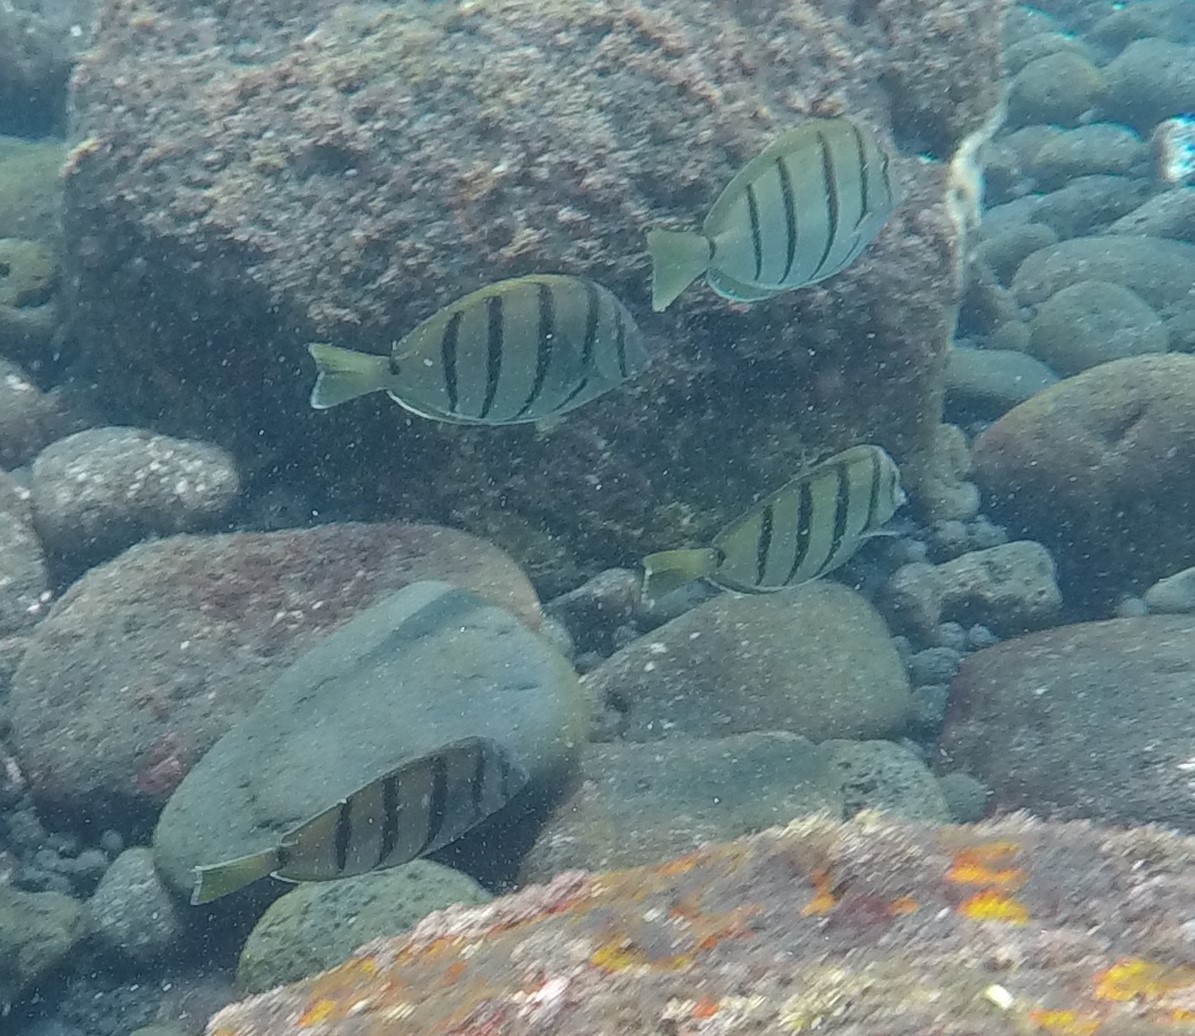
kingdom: Animalia
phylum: Chordata
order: Perciformes
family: Acanthuridae
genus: Acanthurus
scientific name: Acanthurus triostegus
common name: Convict surgeonfish
